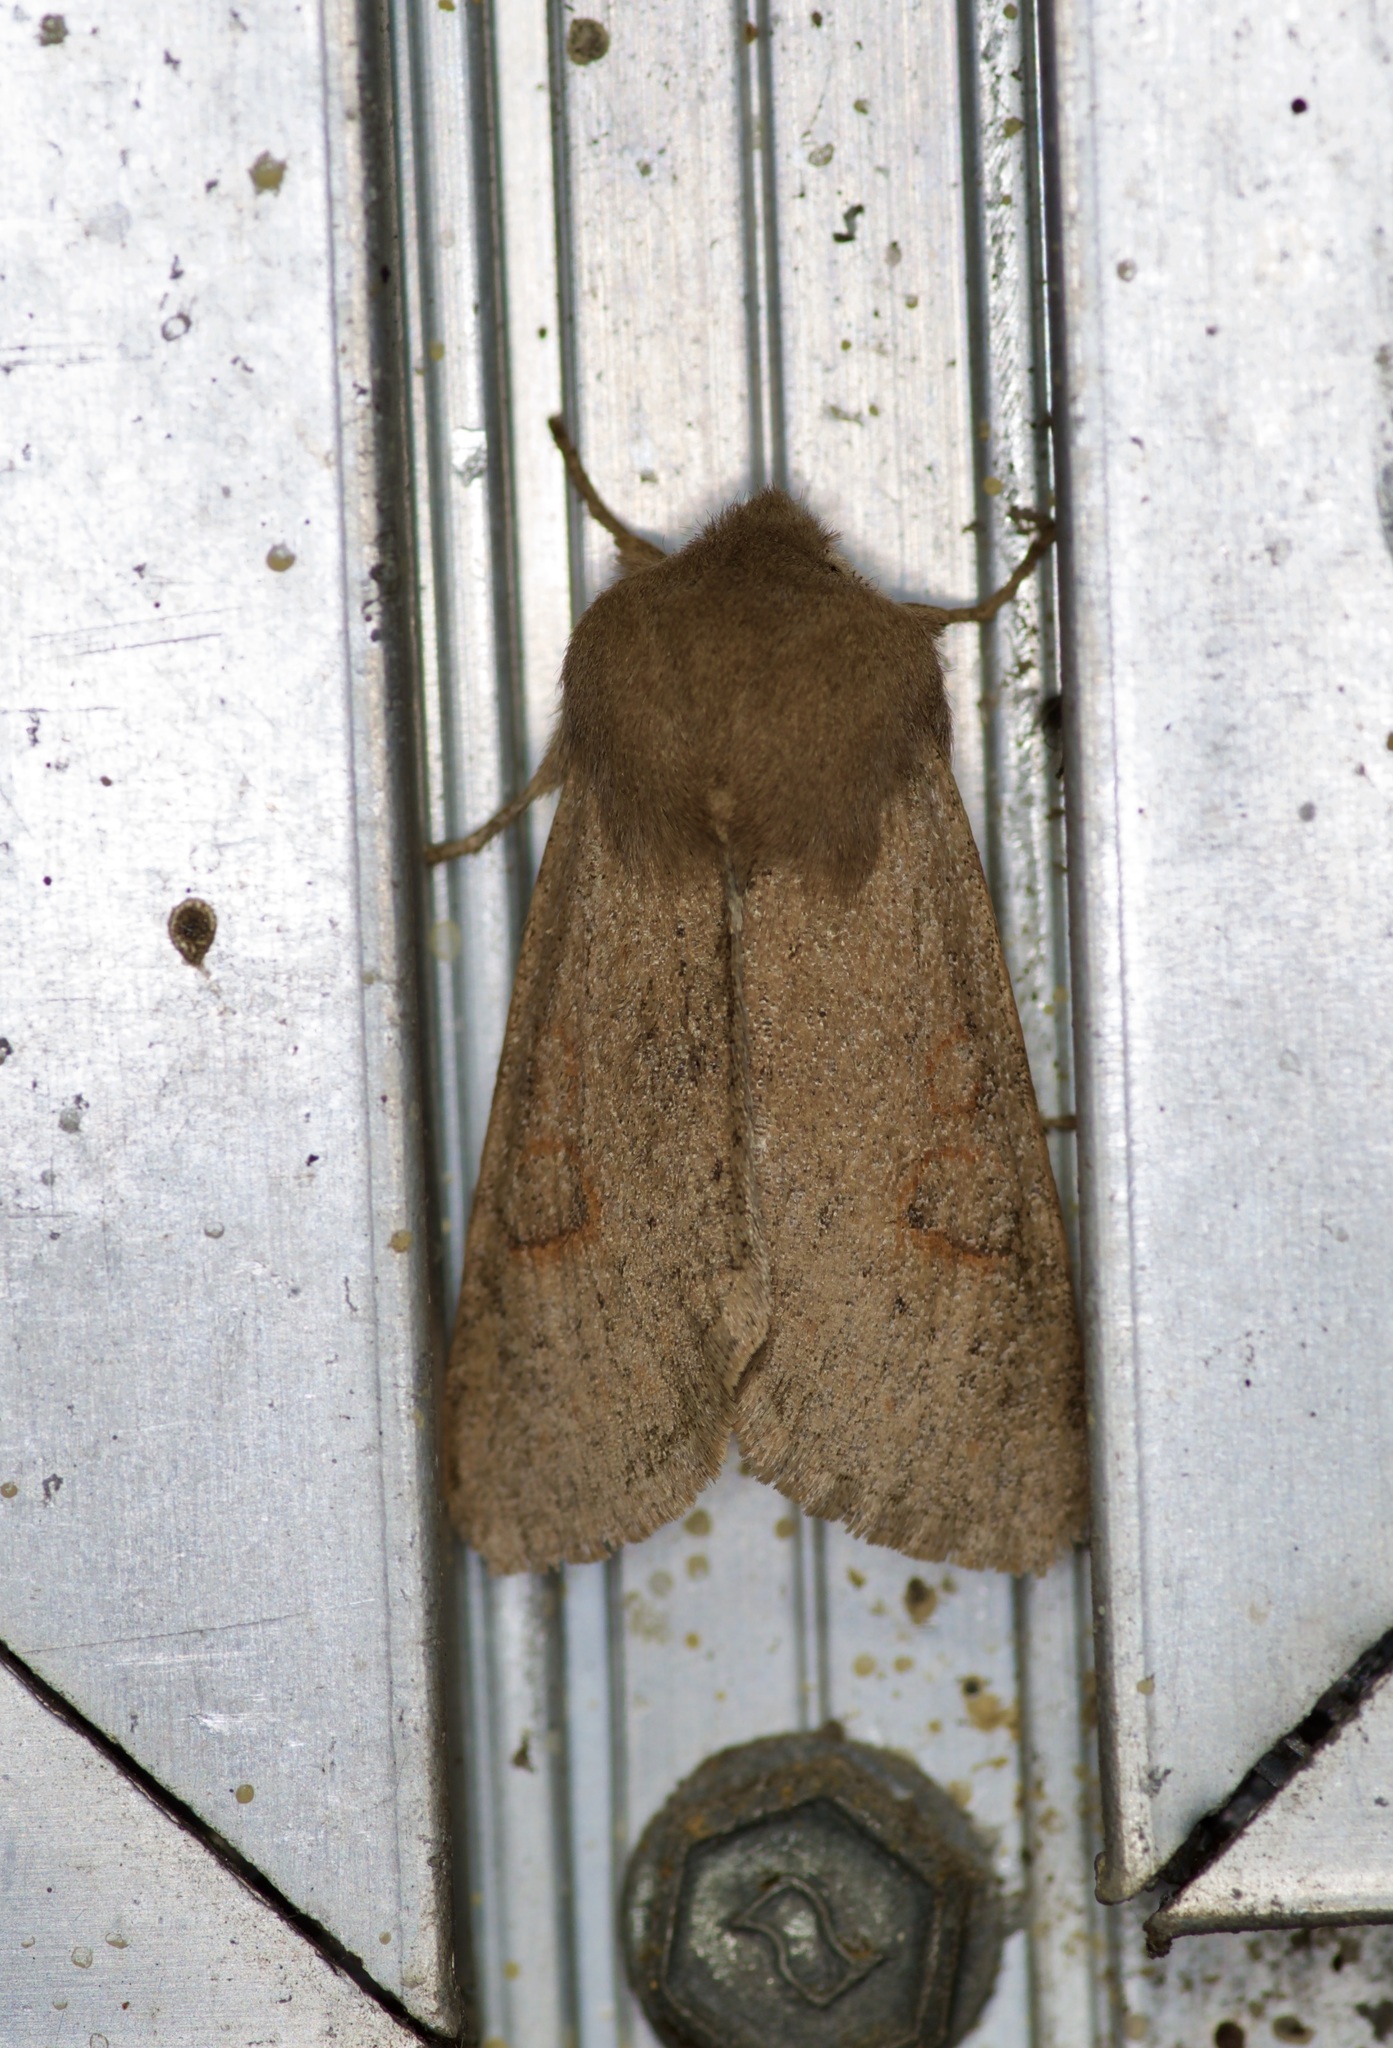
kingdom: Animalia
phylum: Arthropoda
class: Insecta
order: Lepidoptera
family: Noctuidae
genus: Mythimna
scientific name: Mythimna unipuncta
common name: White-speck
